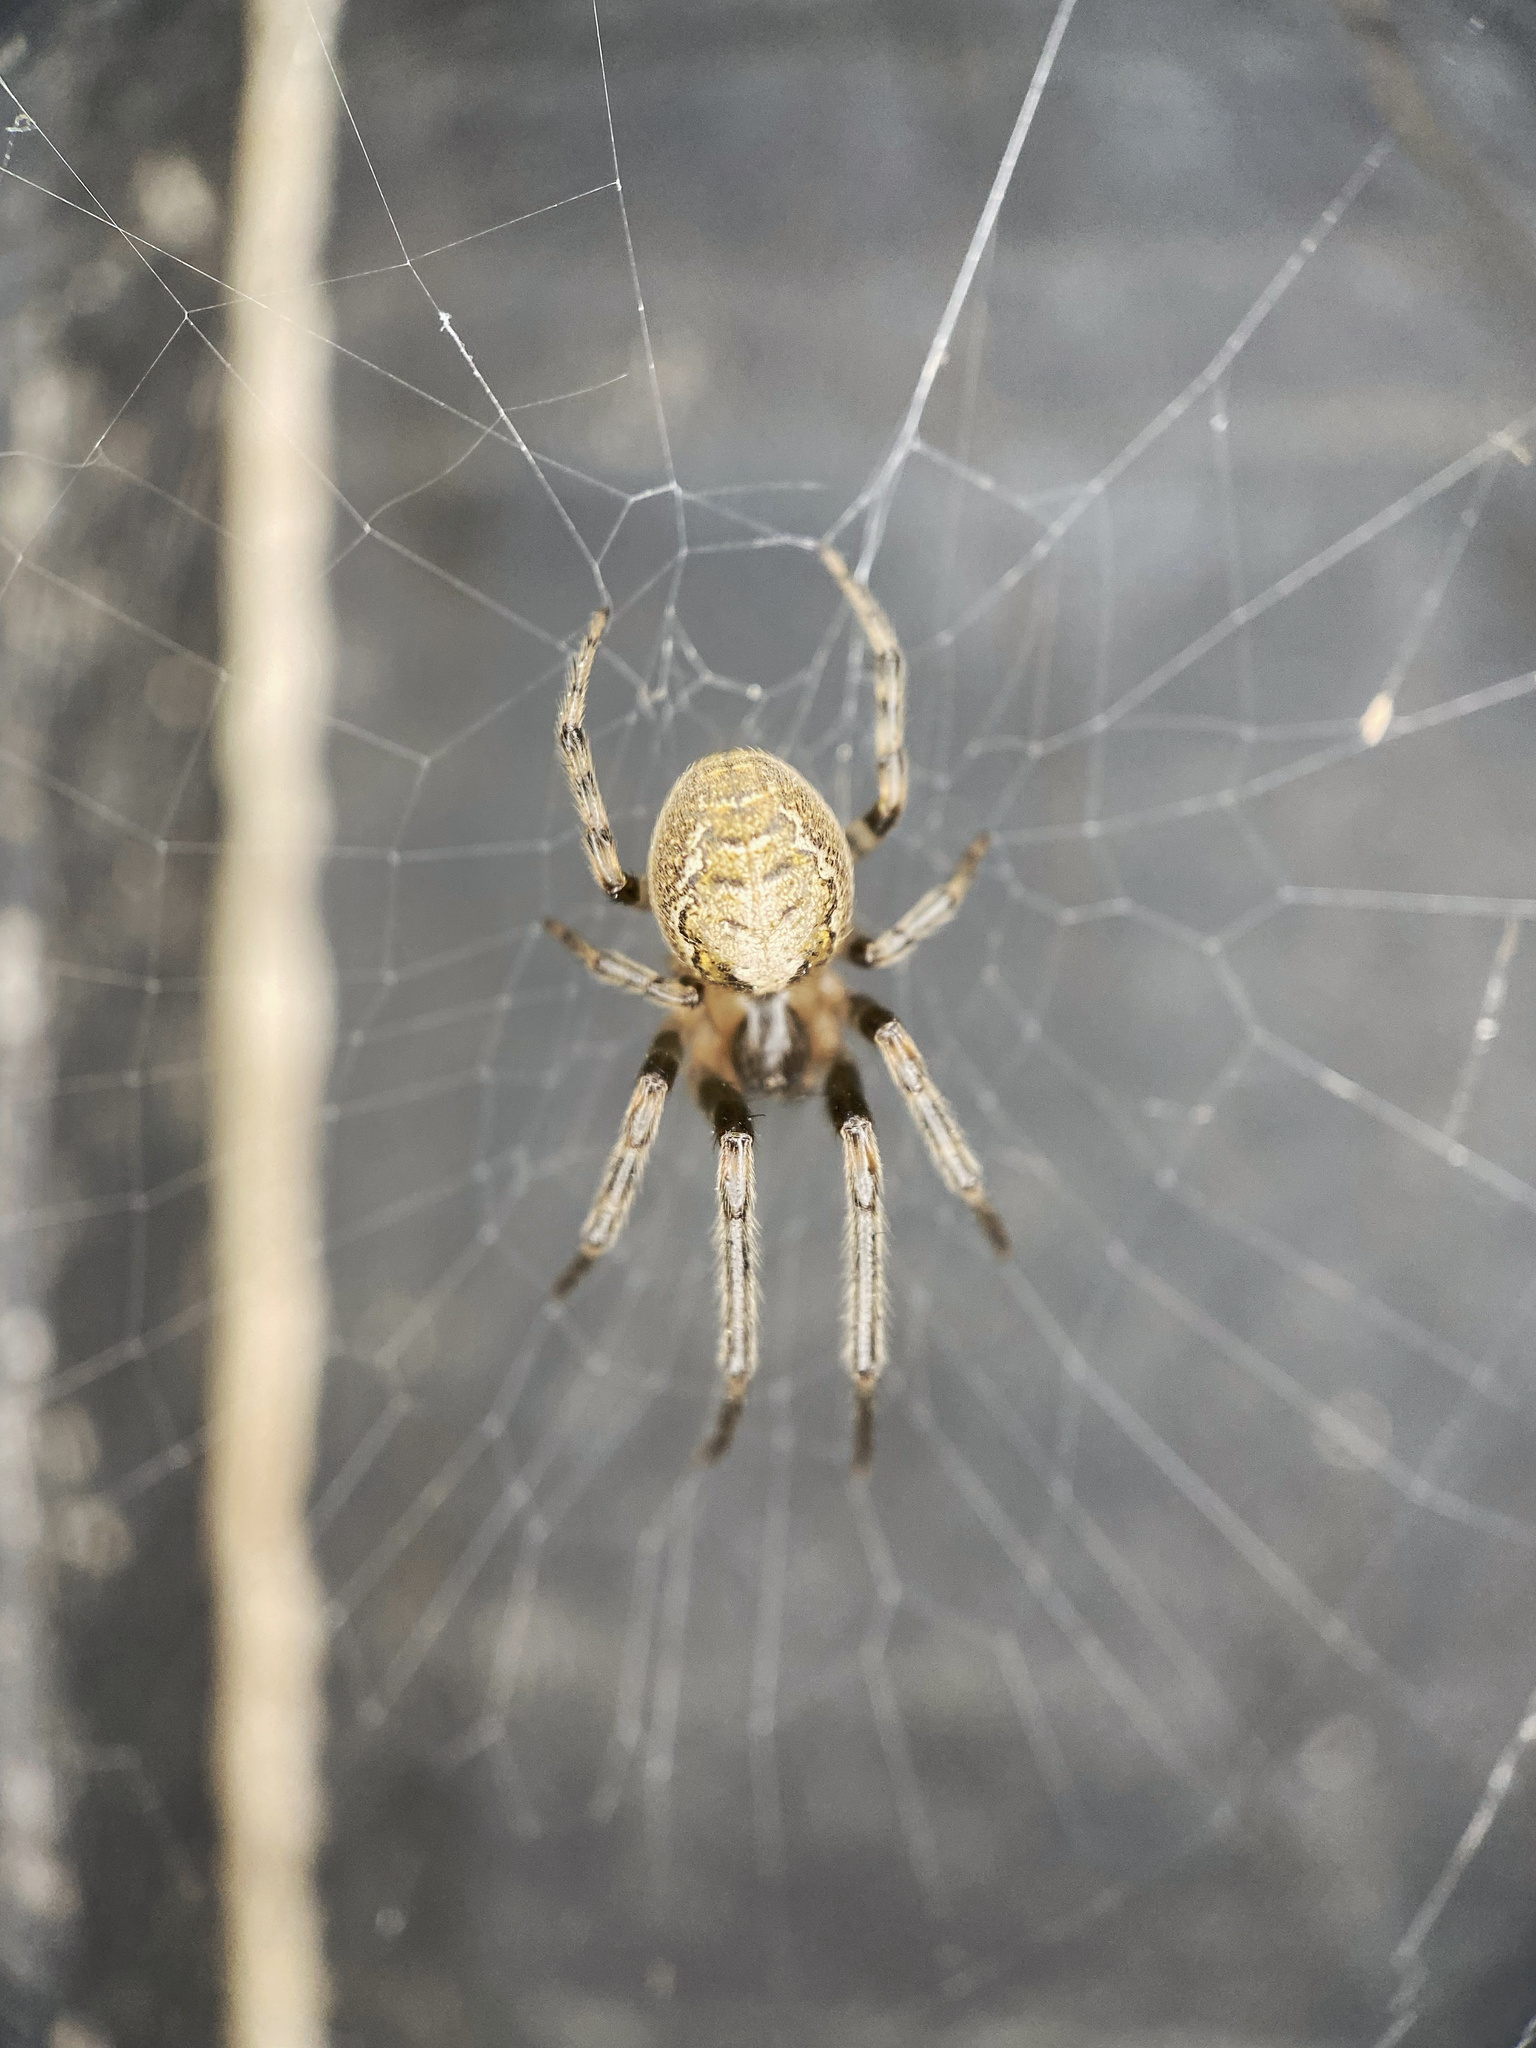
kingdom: Animalia
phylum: Arthropoda
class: Arachnida
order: Araneae
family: Araneidae
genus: Zygiella
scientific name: Zygiella x-notata
